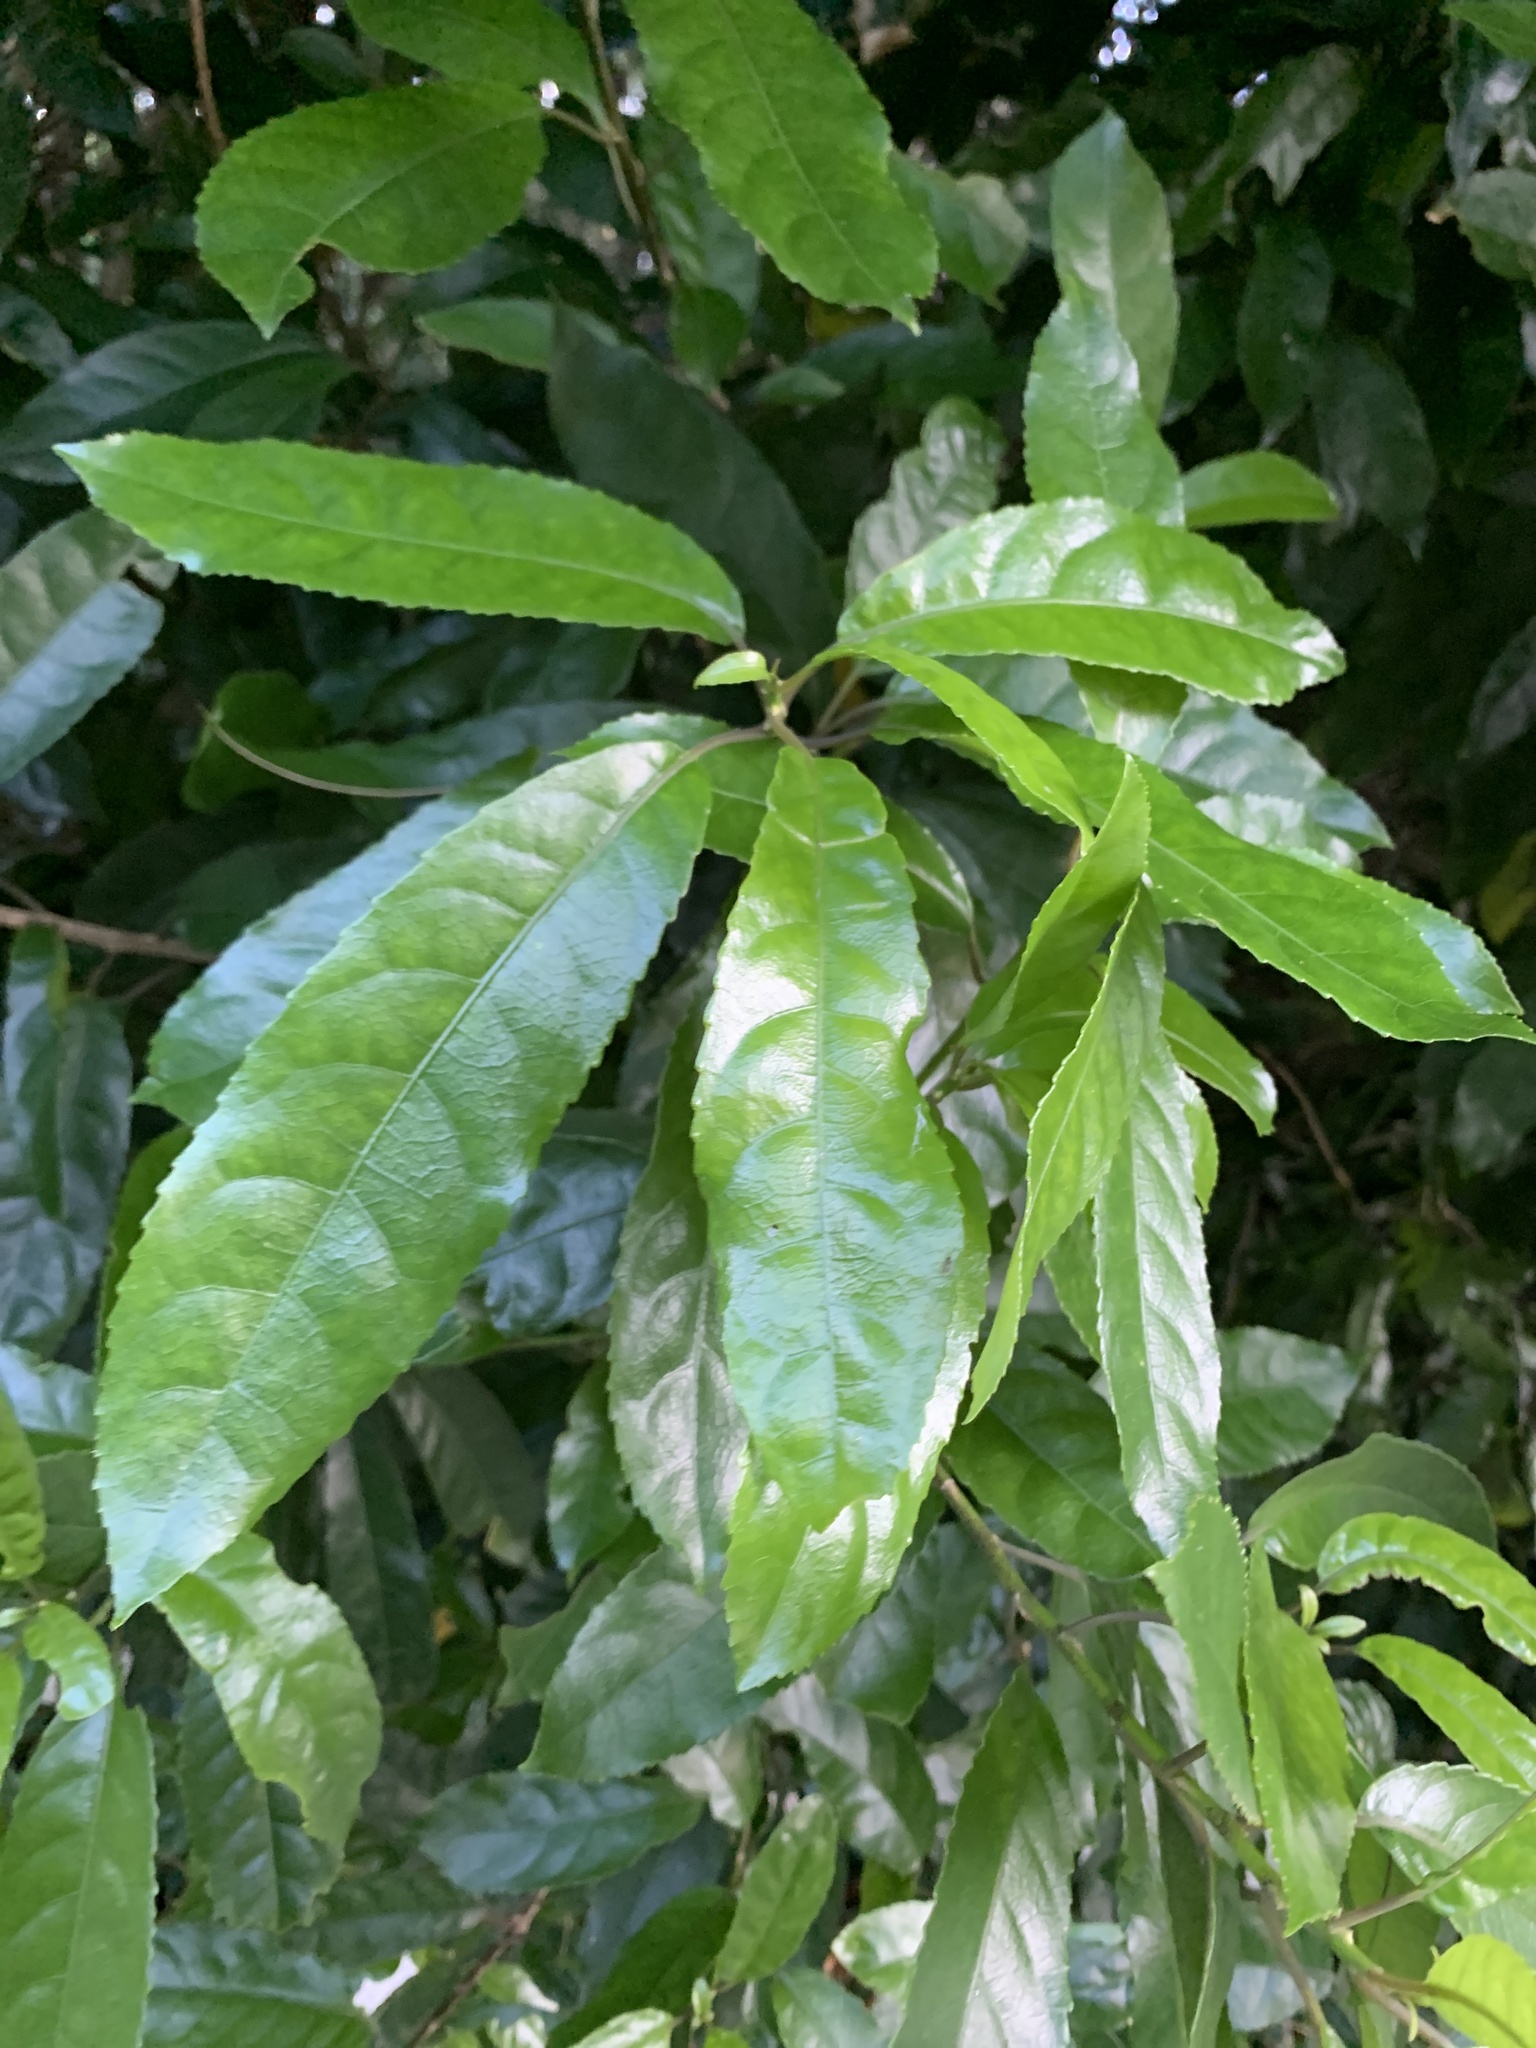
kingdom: Plantae
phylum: Tracheophyta
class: Magnoliopsida
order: Malpighiales
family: Violaceae
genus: Melicytus
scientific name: Melicytus ramiflorus
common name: Mahoe
